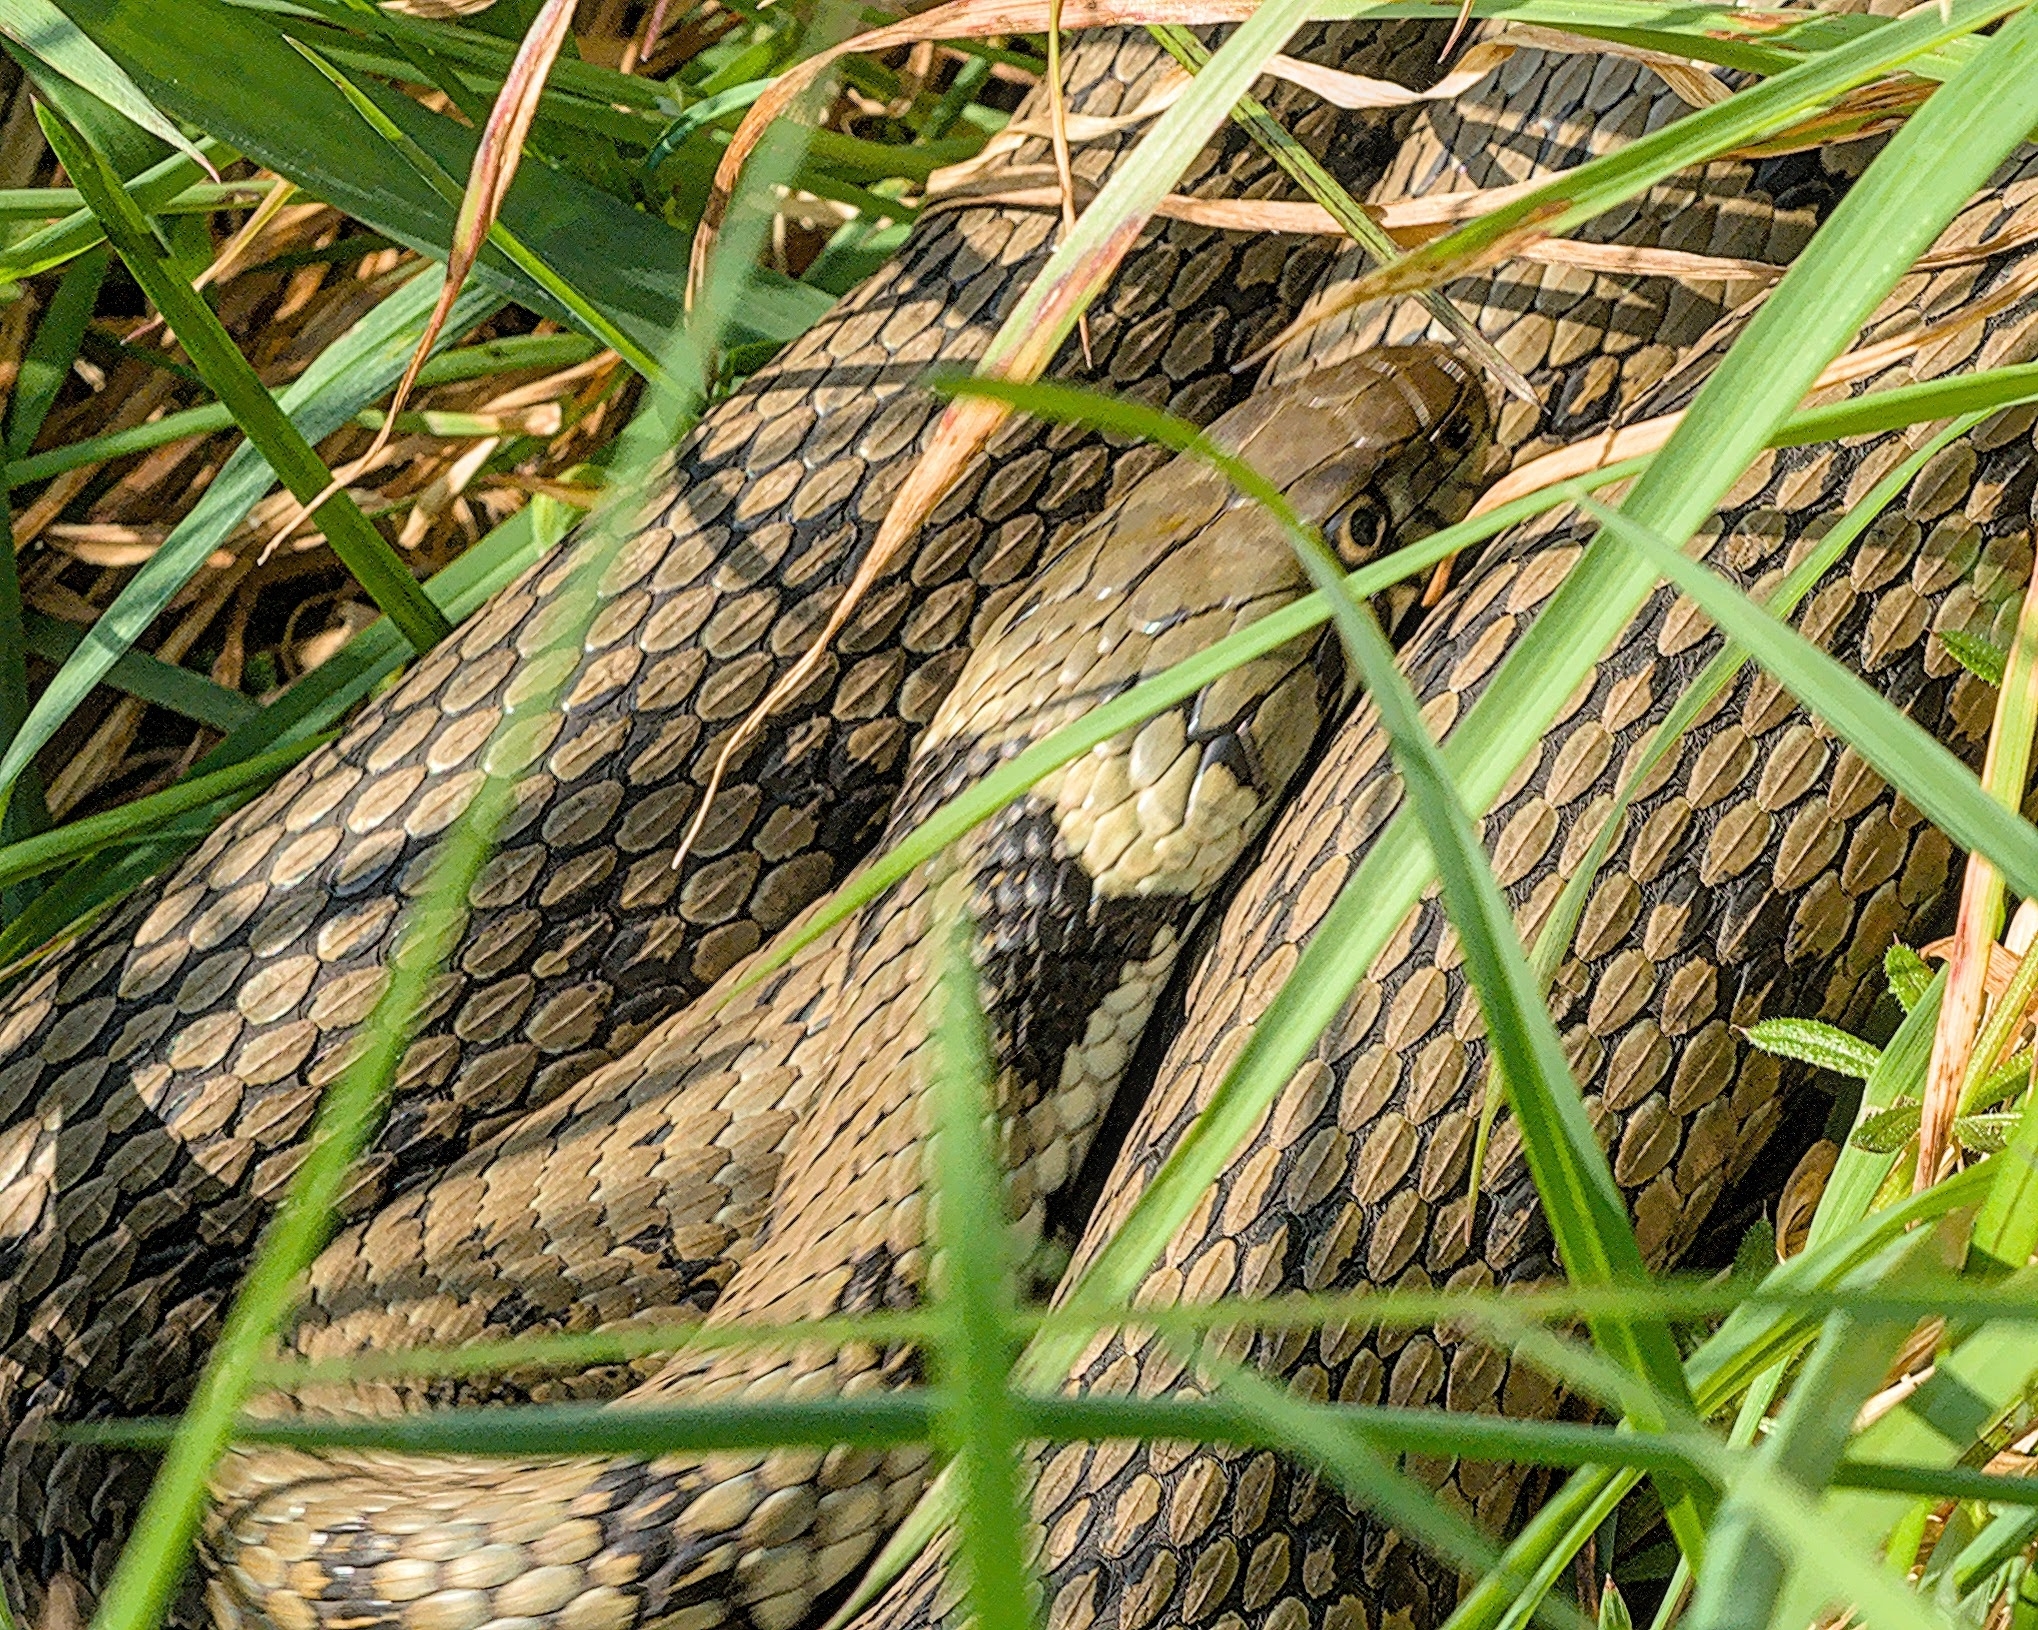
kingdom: Animalia
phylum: Chordata
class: Squamata
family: Colubridae
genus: Natrix
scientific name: Natrix helvetica
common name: Banded grass snake
